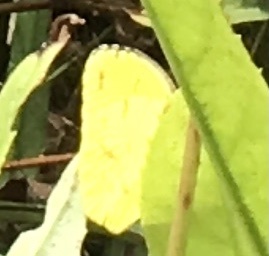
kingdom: Animalia
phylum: Arthropoda
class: Insecta
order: Lepidoptera
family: Pieridae
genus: Abaeis
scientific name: Abaeis nicippe
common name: Sleepy orange
